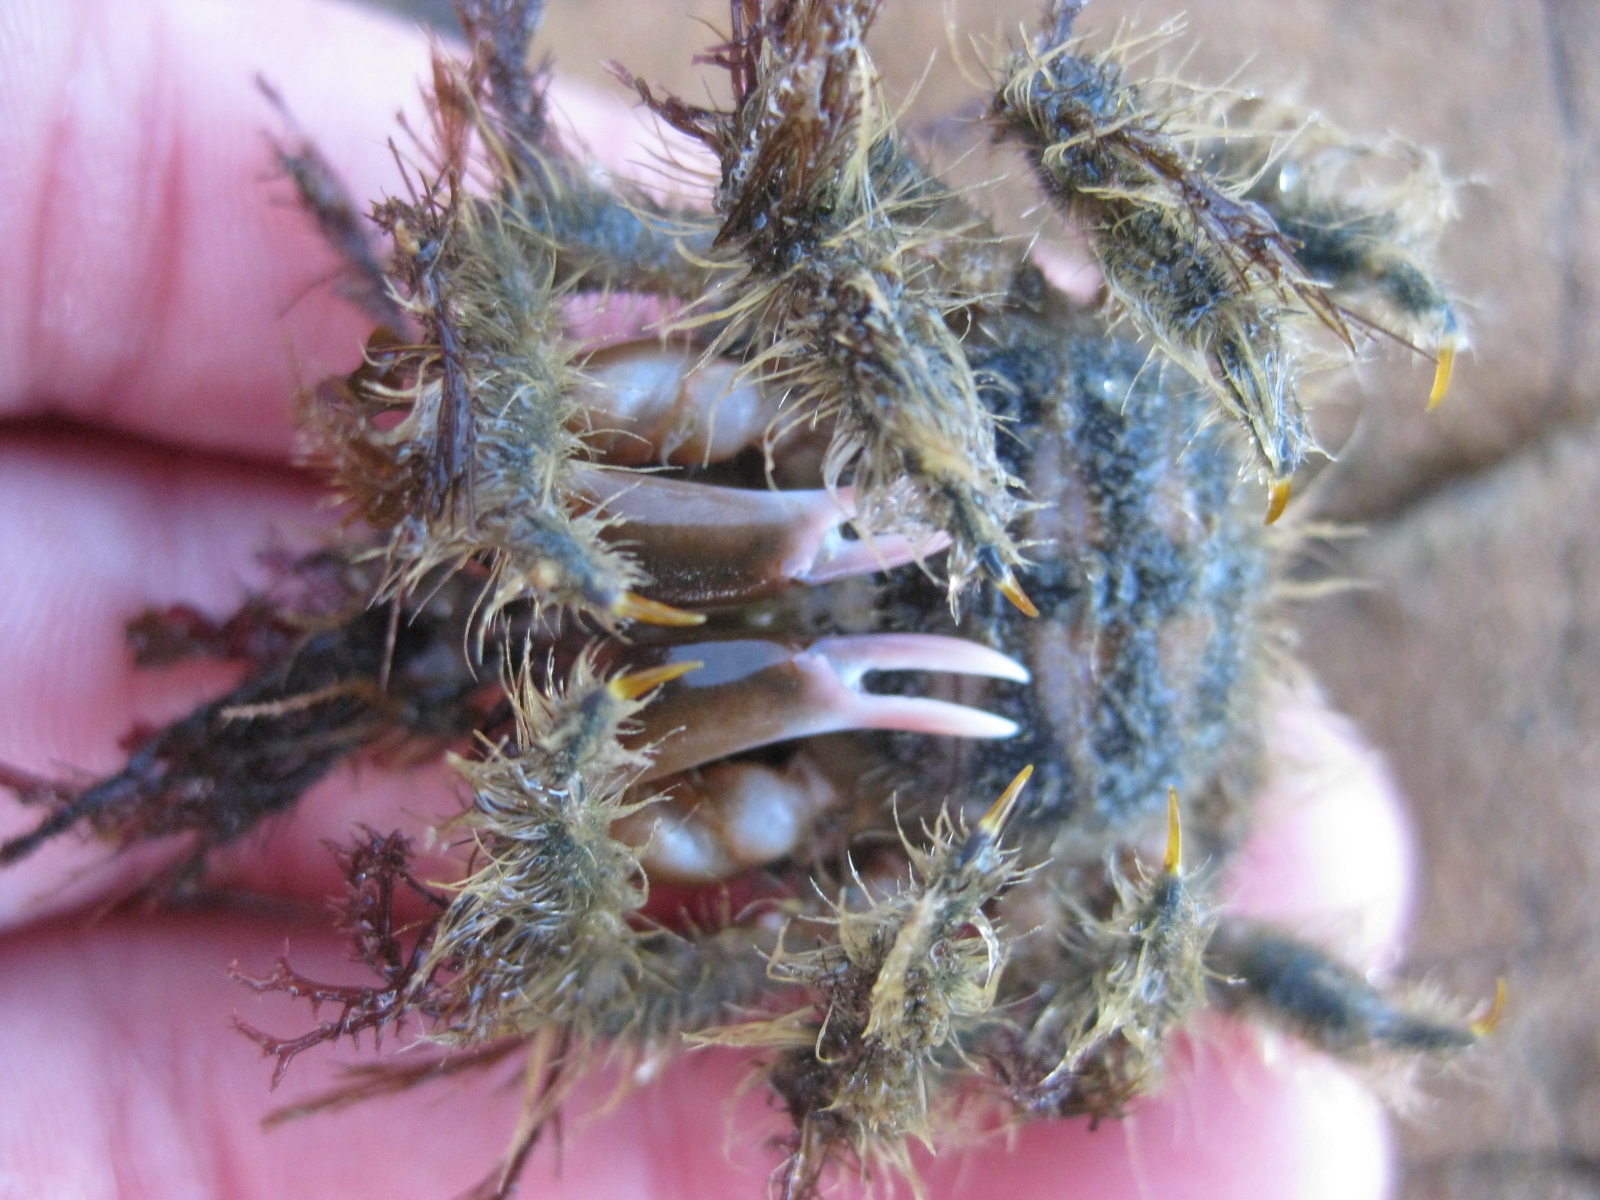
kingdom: Animalia
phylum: Arthropoda
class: Malacostraca
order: Decapoda
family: Majidae
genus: Notomithrax
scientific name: Notomithrax ursus
